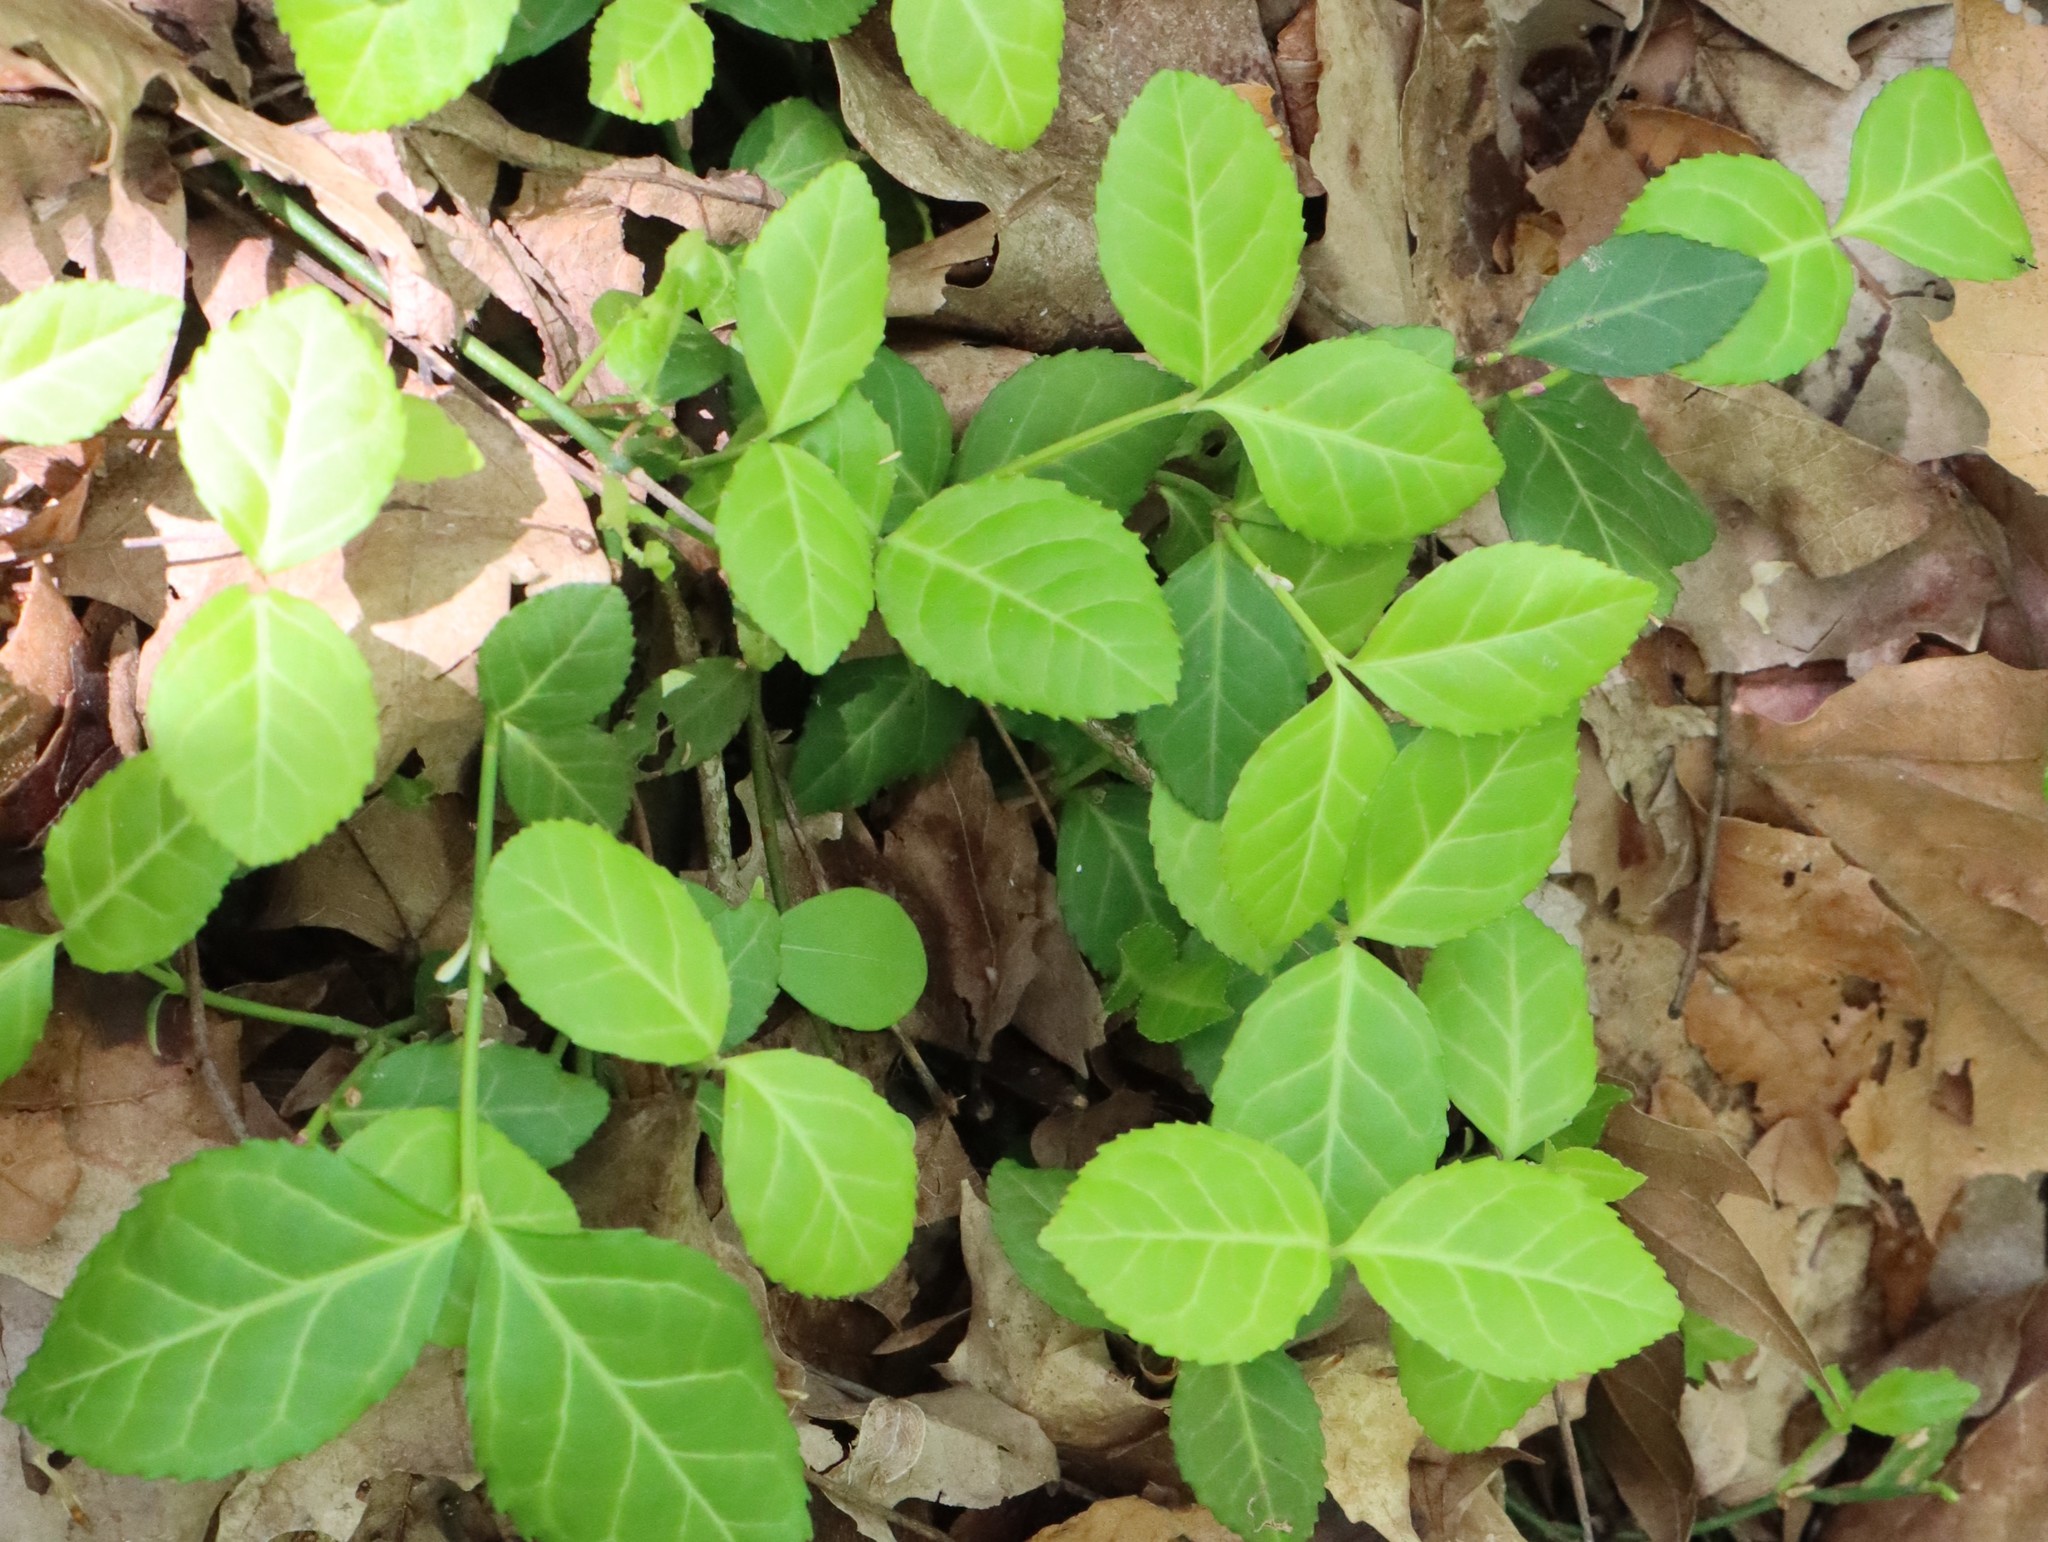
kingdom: Plantae
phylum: Tracheophyta
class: Magnoliopsida
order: Celastrales
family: Celastraceae
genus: Euonymus
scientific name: Euonymus fortunei
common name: Climbing euonymus
